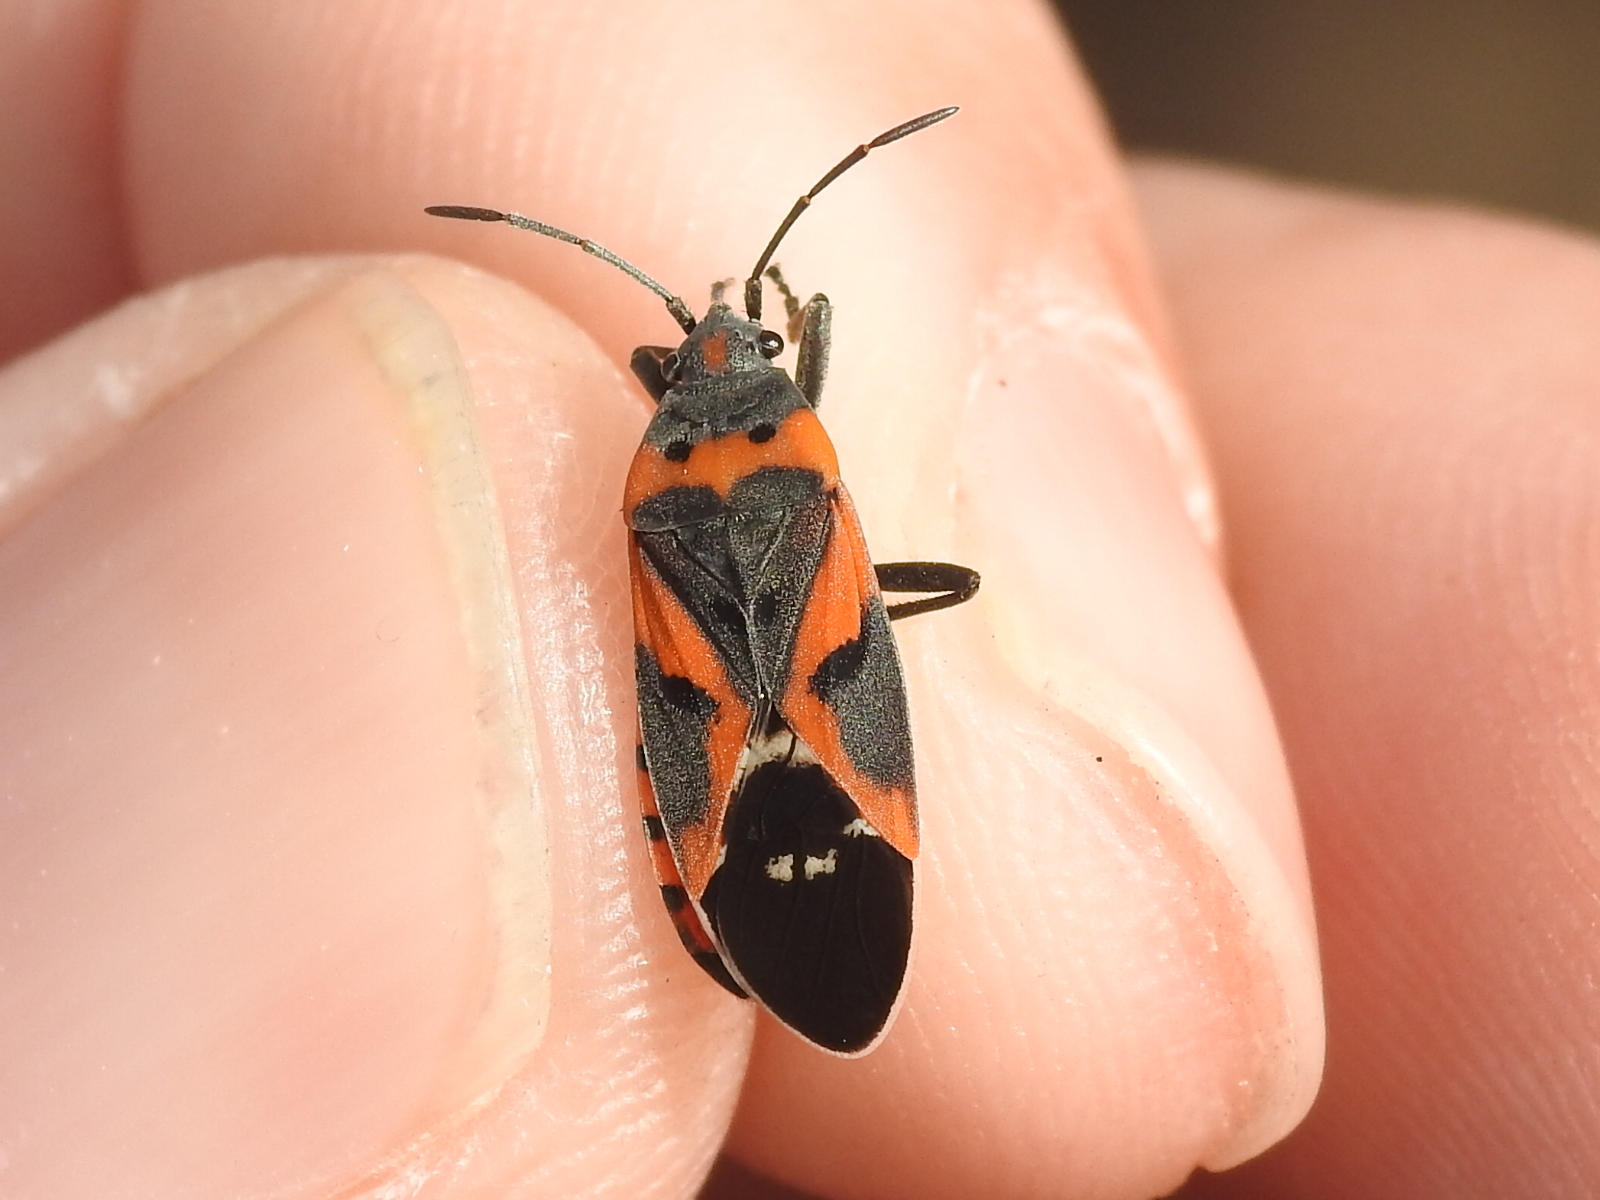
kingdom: Animalia
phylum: Arthropoda
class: Insecta
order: Hemiptera
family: Lygaeidae
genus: Lygaeus
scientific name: Lygaeus kalmii
